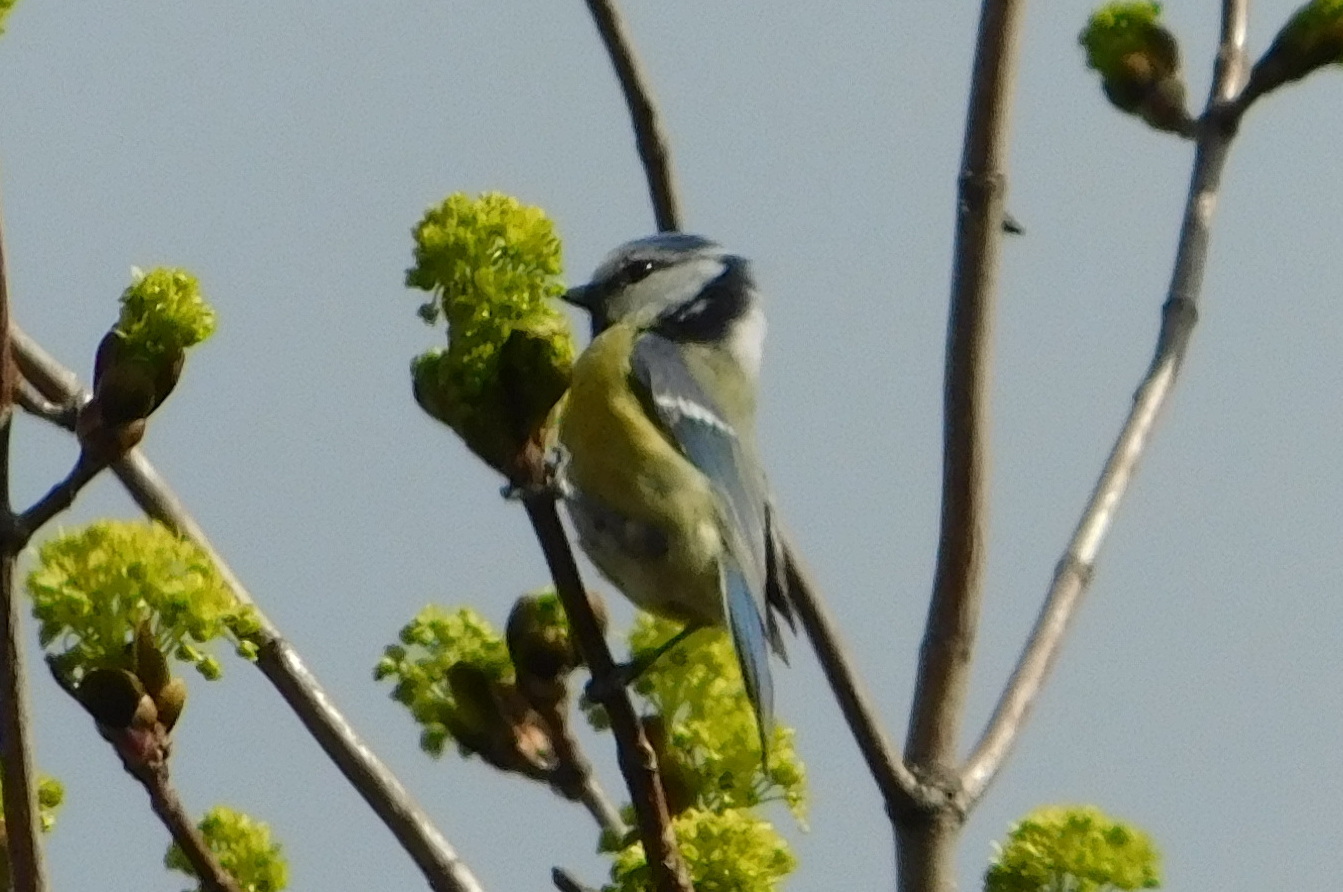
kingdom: Animalia
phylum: Chordata
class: Aves
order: Passeriformes
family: Paridae
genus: Cyanistes
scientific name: Cyanistes caeruleus
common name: Eurasian blue tit
